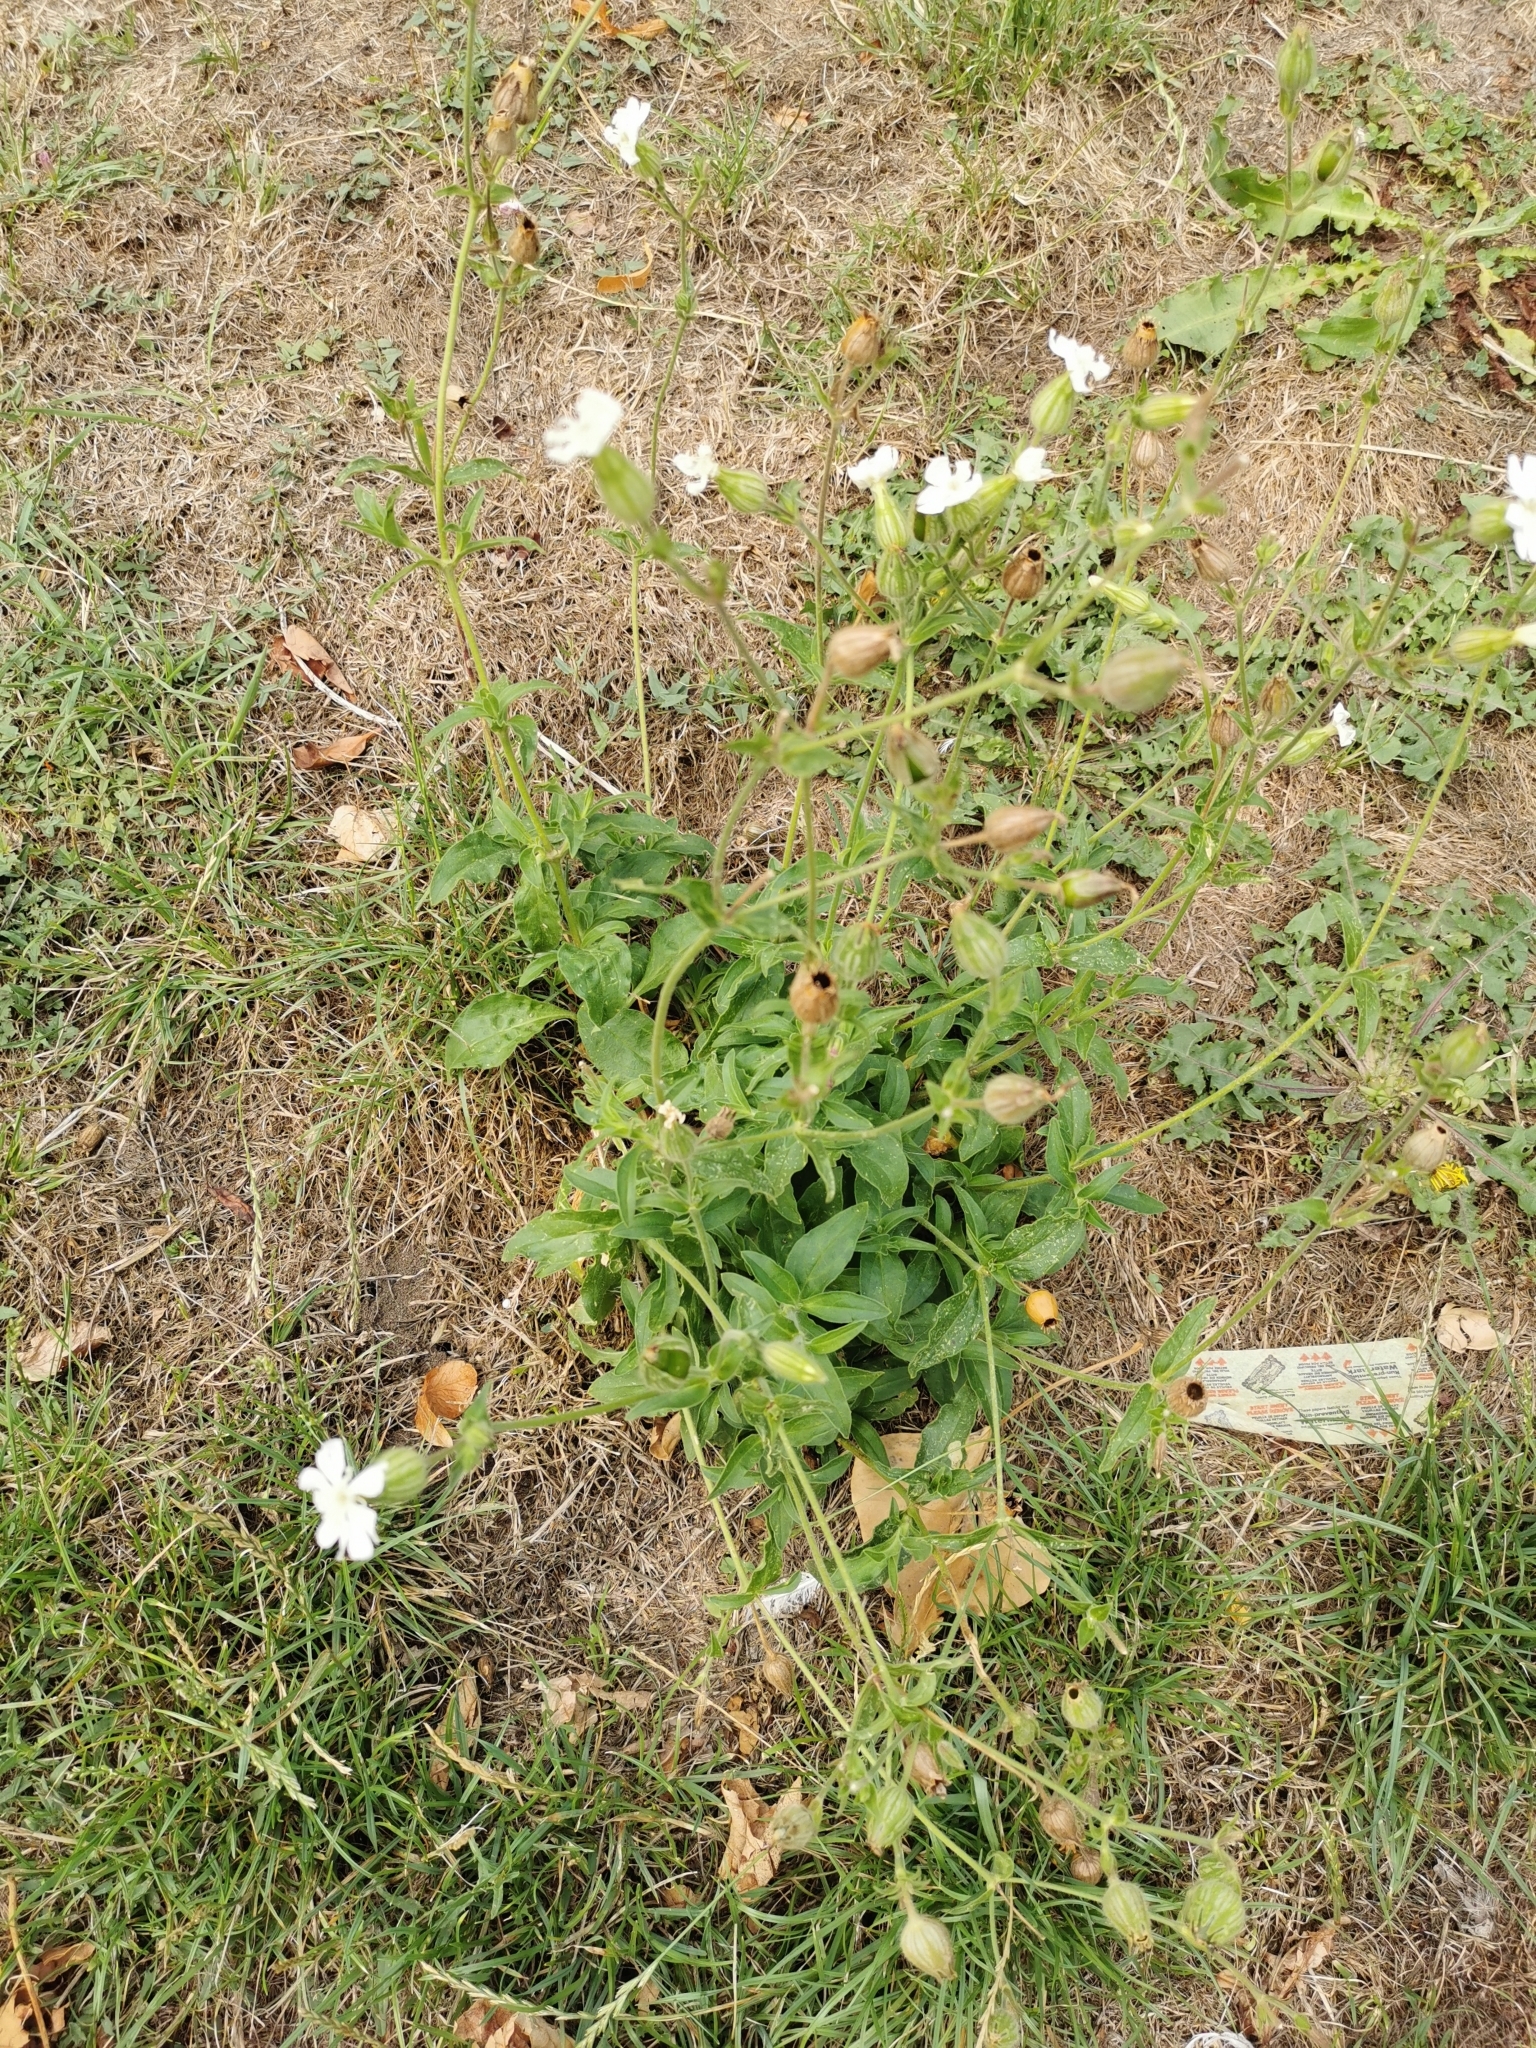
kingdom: Plantae
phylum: Tracheophyta
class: Magnoliopsida
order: Caryophyllales
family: Caryophyllaceae
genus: Silene
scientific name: Silene latifolia
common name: White campion
